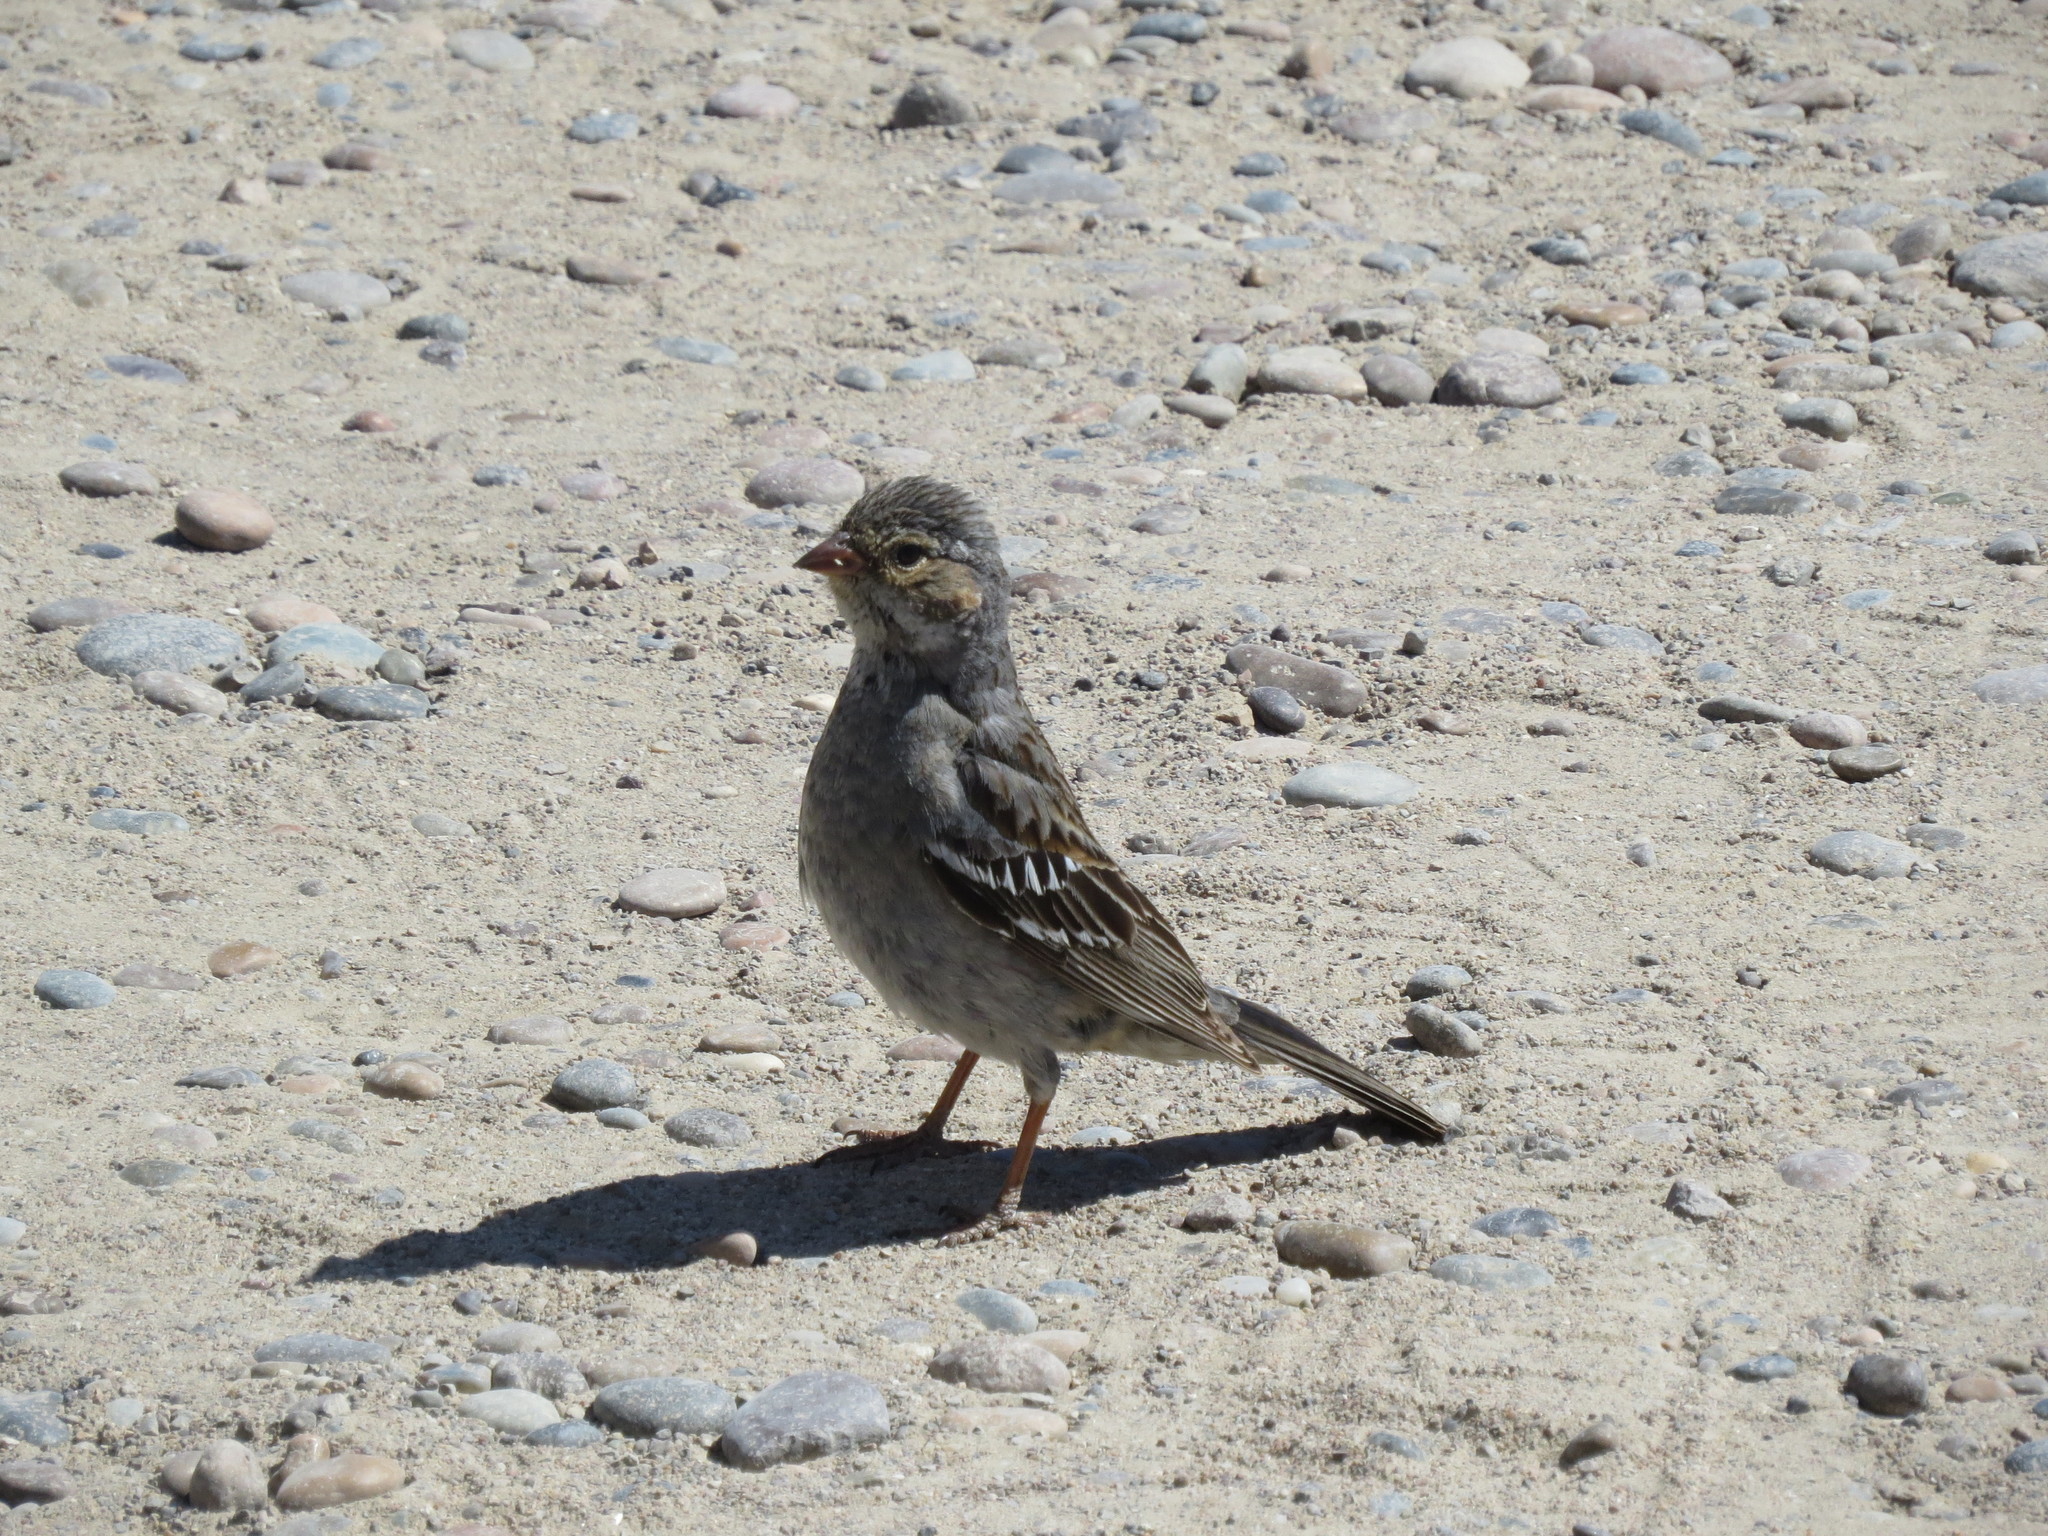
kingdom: Animalia
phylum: Chordata
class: Aves
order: Passeriformes
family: Thraupidae
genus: Rhopospina
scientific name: Rhopospina fruticeti
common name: Mourning sierra finch
